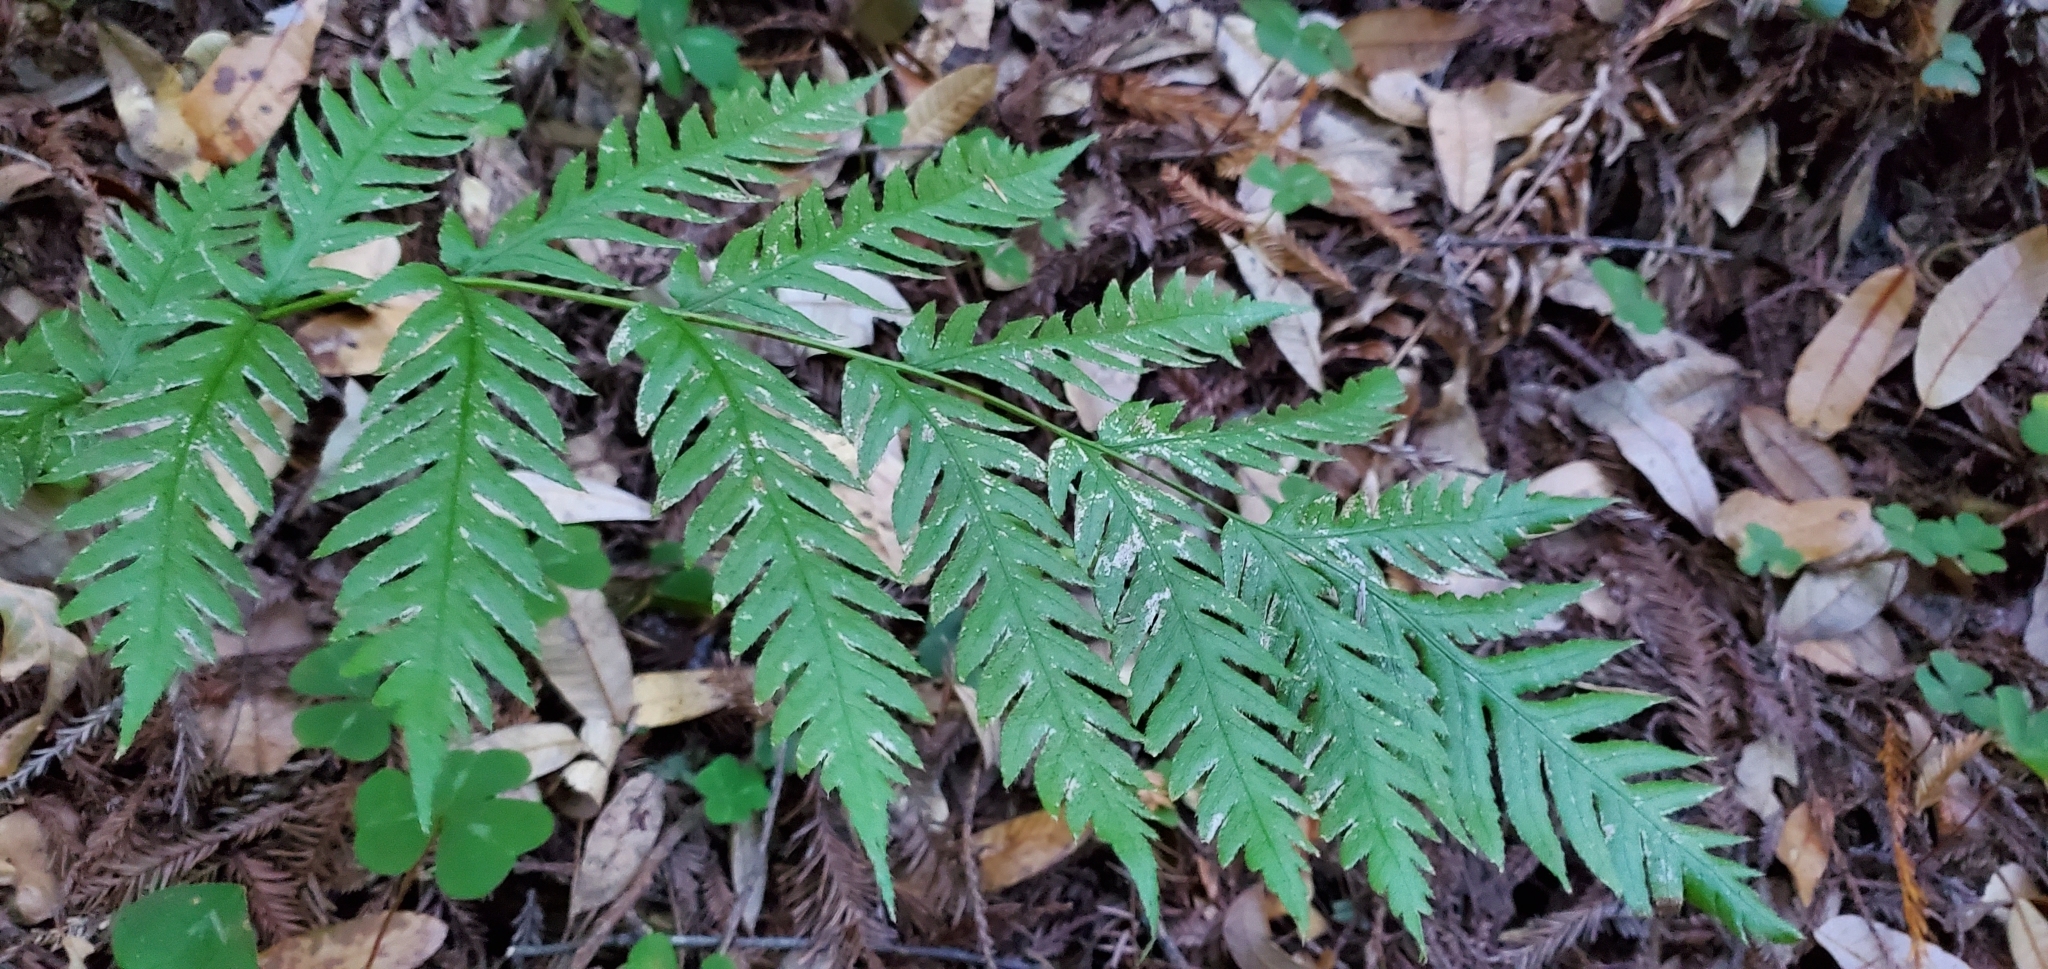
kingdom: Plantae
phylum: Tracheophyta
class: Polypodiopsida
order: Polypodiales
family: Blechnaceae
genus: Woodwardia
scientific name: Woodwardia fimbriata
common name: Giant chain fern
